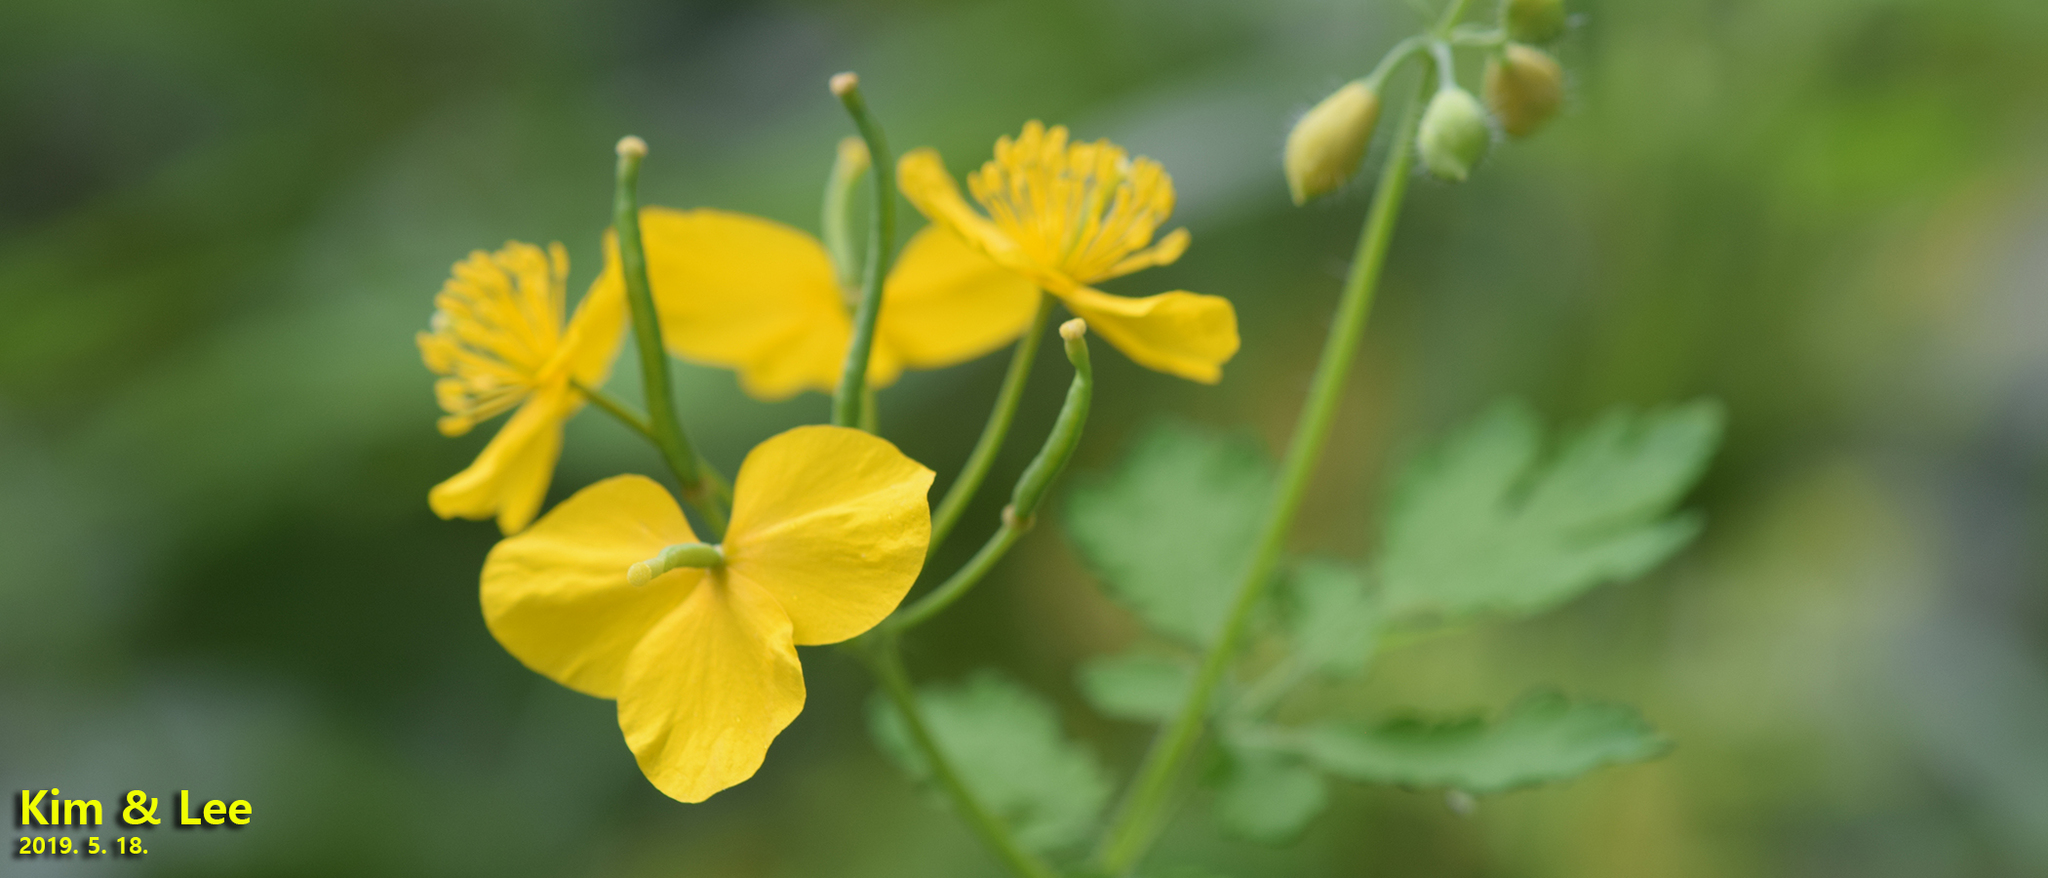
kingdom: Plantae
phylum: Tracheophyta
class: Magnoliopsida
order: Ranunculales
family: Papaveraceae
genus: Chelidonium
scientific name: Chelidonium majus
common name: Greater celandine
